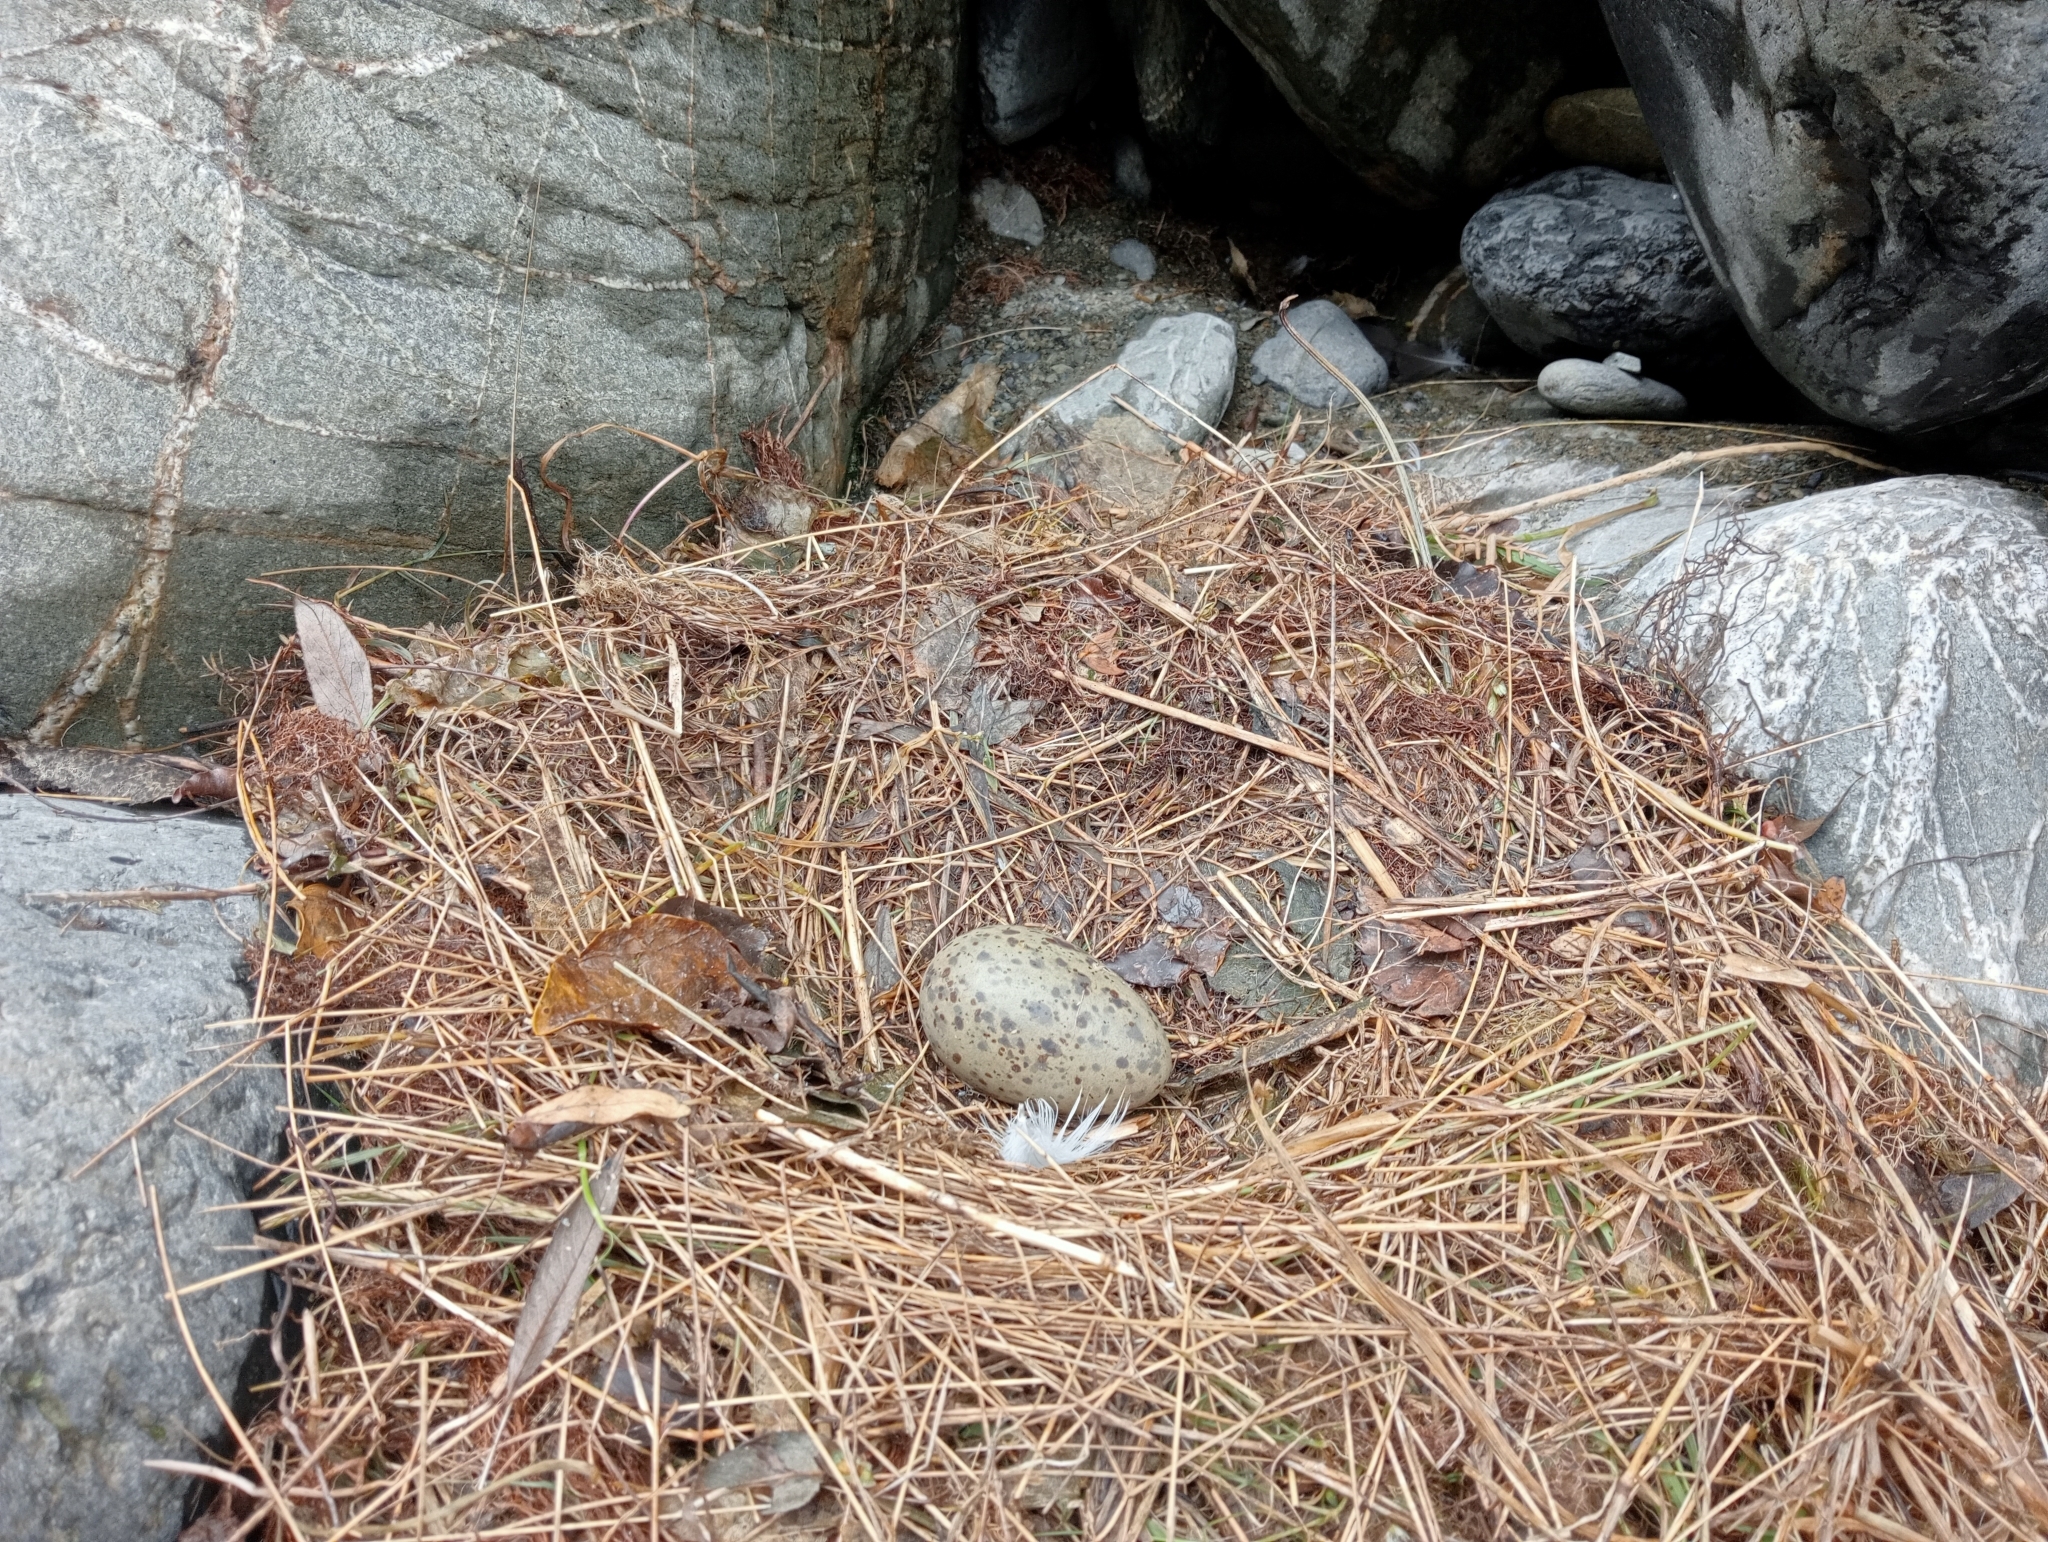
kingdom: Animalia
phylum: Chordata
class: Aves
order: Charadriiformes
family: Laridae
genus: Larus
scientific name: Larus dominicanus
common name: Kelp gull
